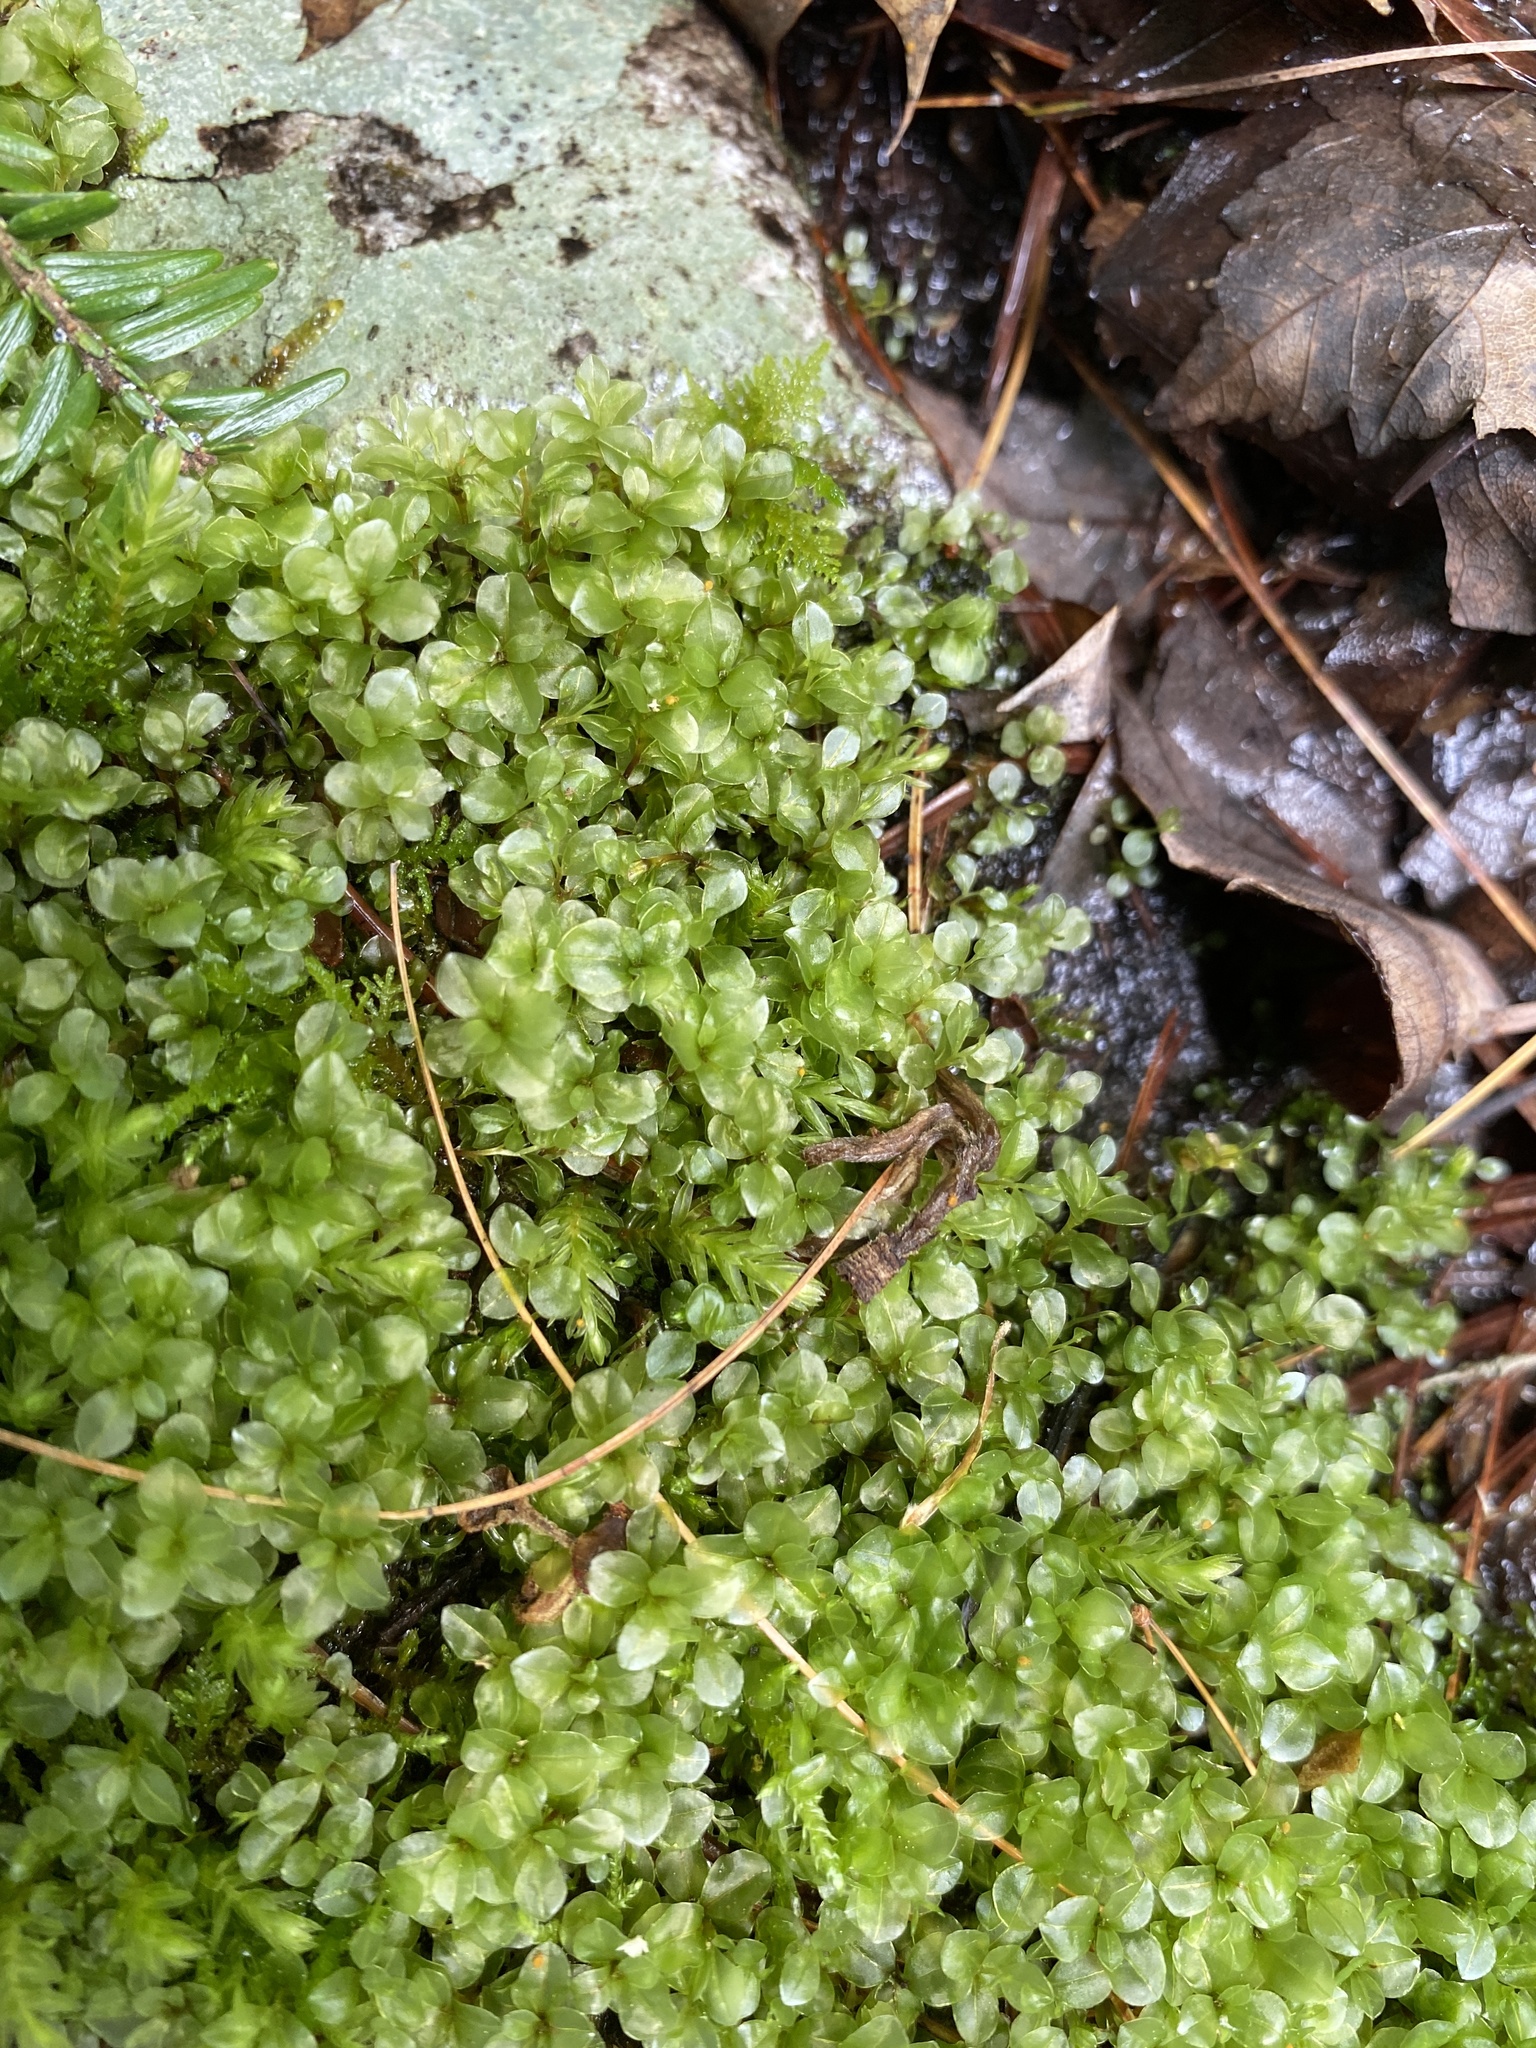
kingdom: Plantae
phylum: Bryophyta
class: Bryopsida
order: Bryales
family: Mniaceae
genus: Rhizomnium
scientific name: Rhizomnium punctatum
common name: Dotted leafy moss
